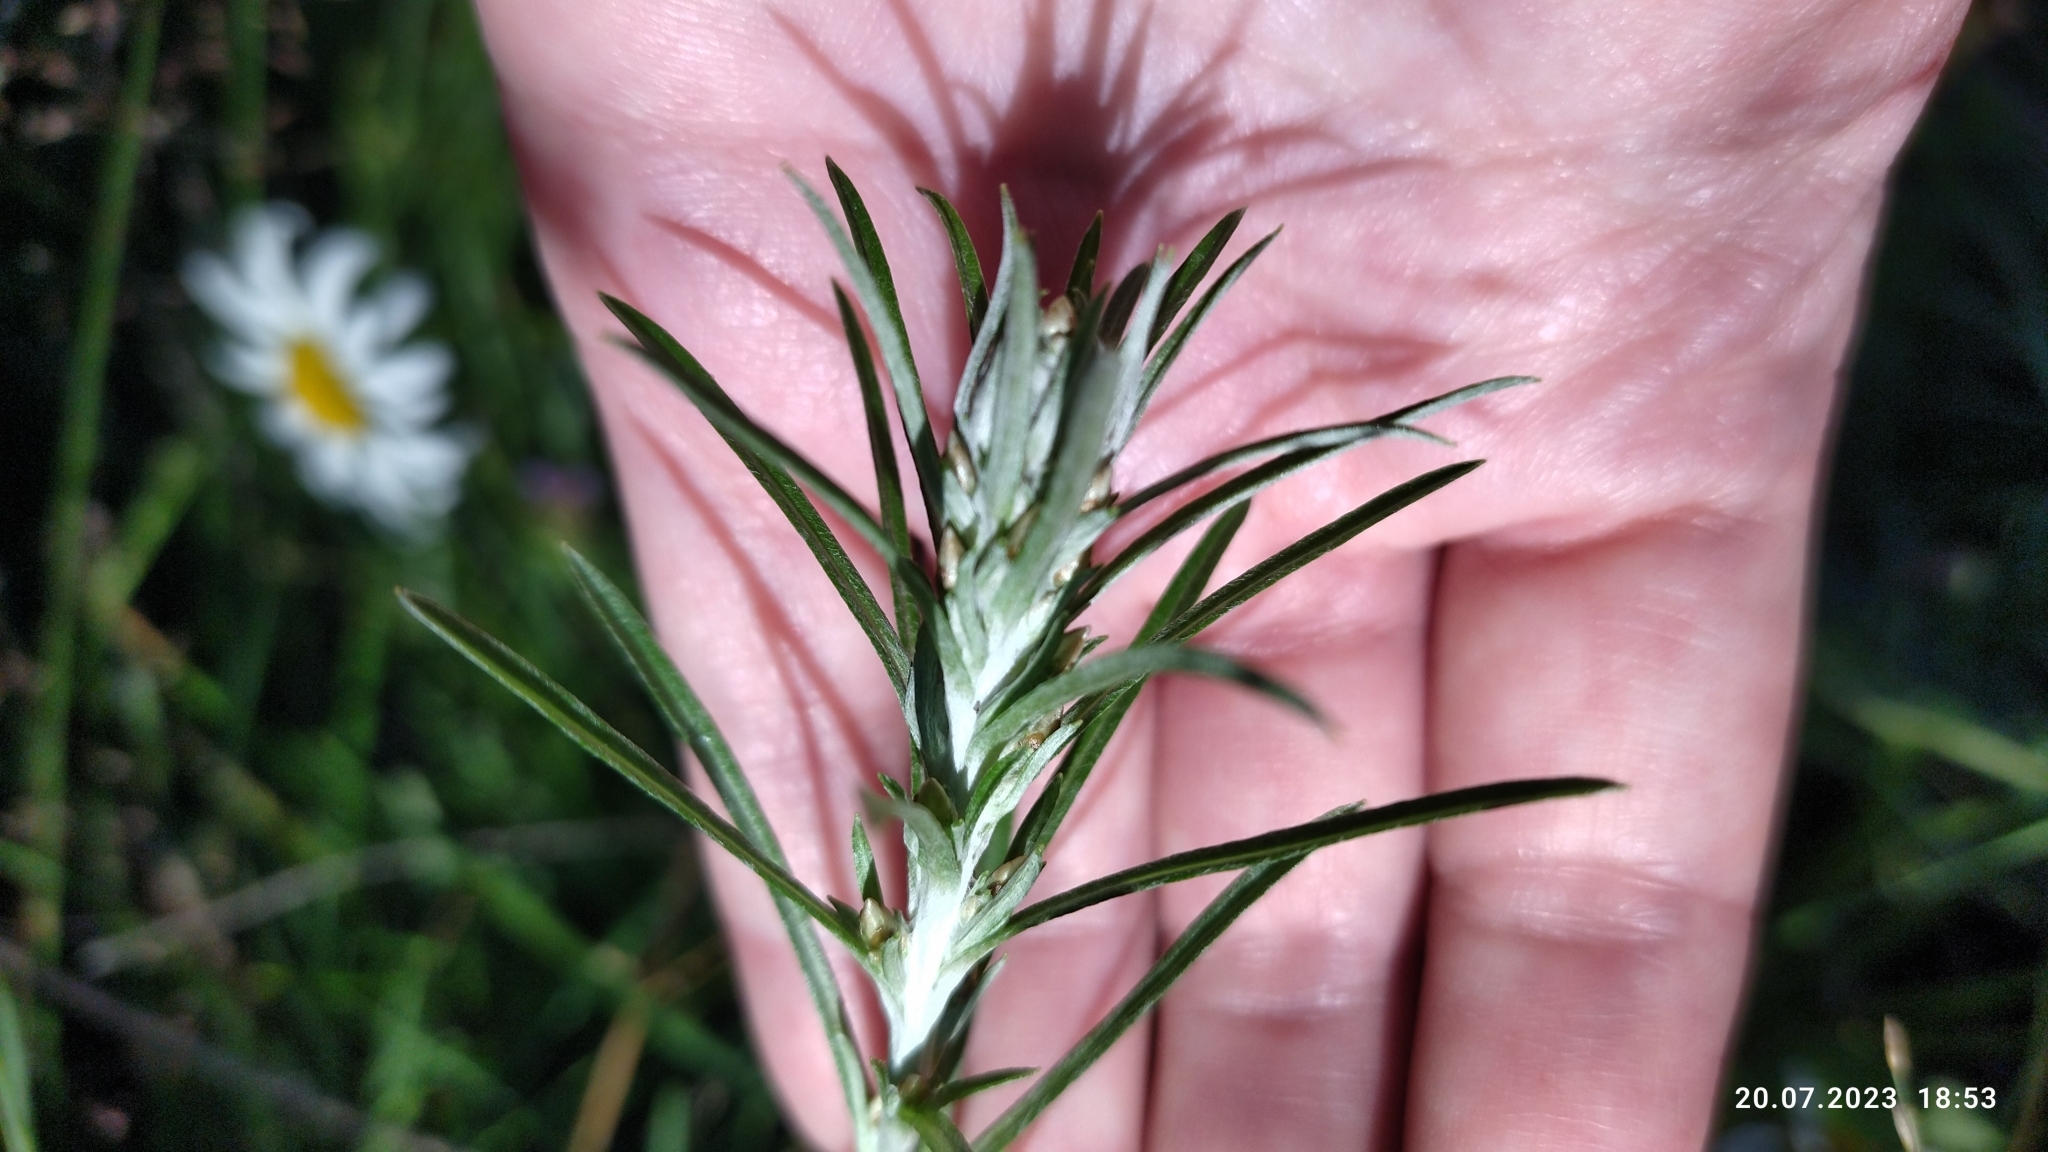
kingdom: Plantae
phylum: Tracheophyta
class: Magnoliopsida
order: Asterales
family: Asteraceae
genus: Omalotheca
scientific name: Omalotheca sylvatica
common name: Heath cudweed
